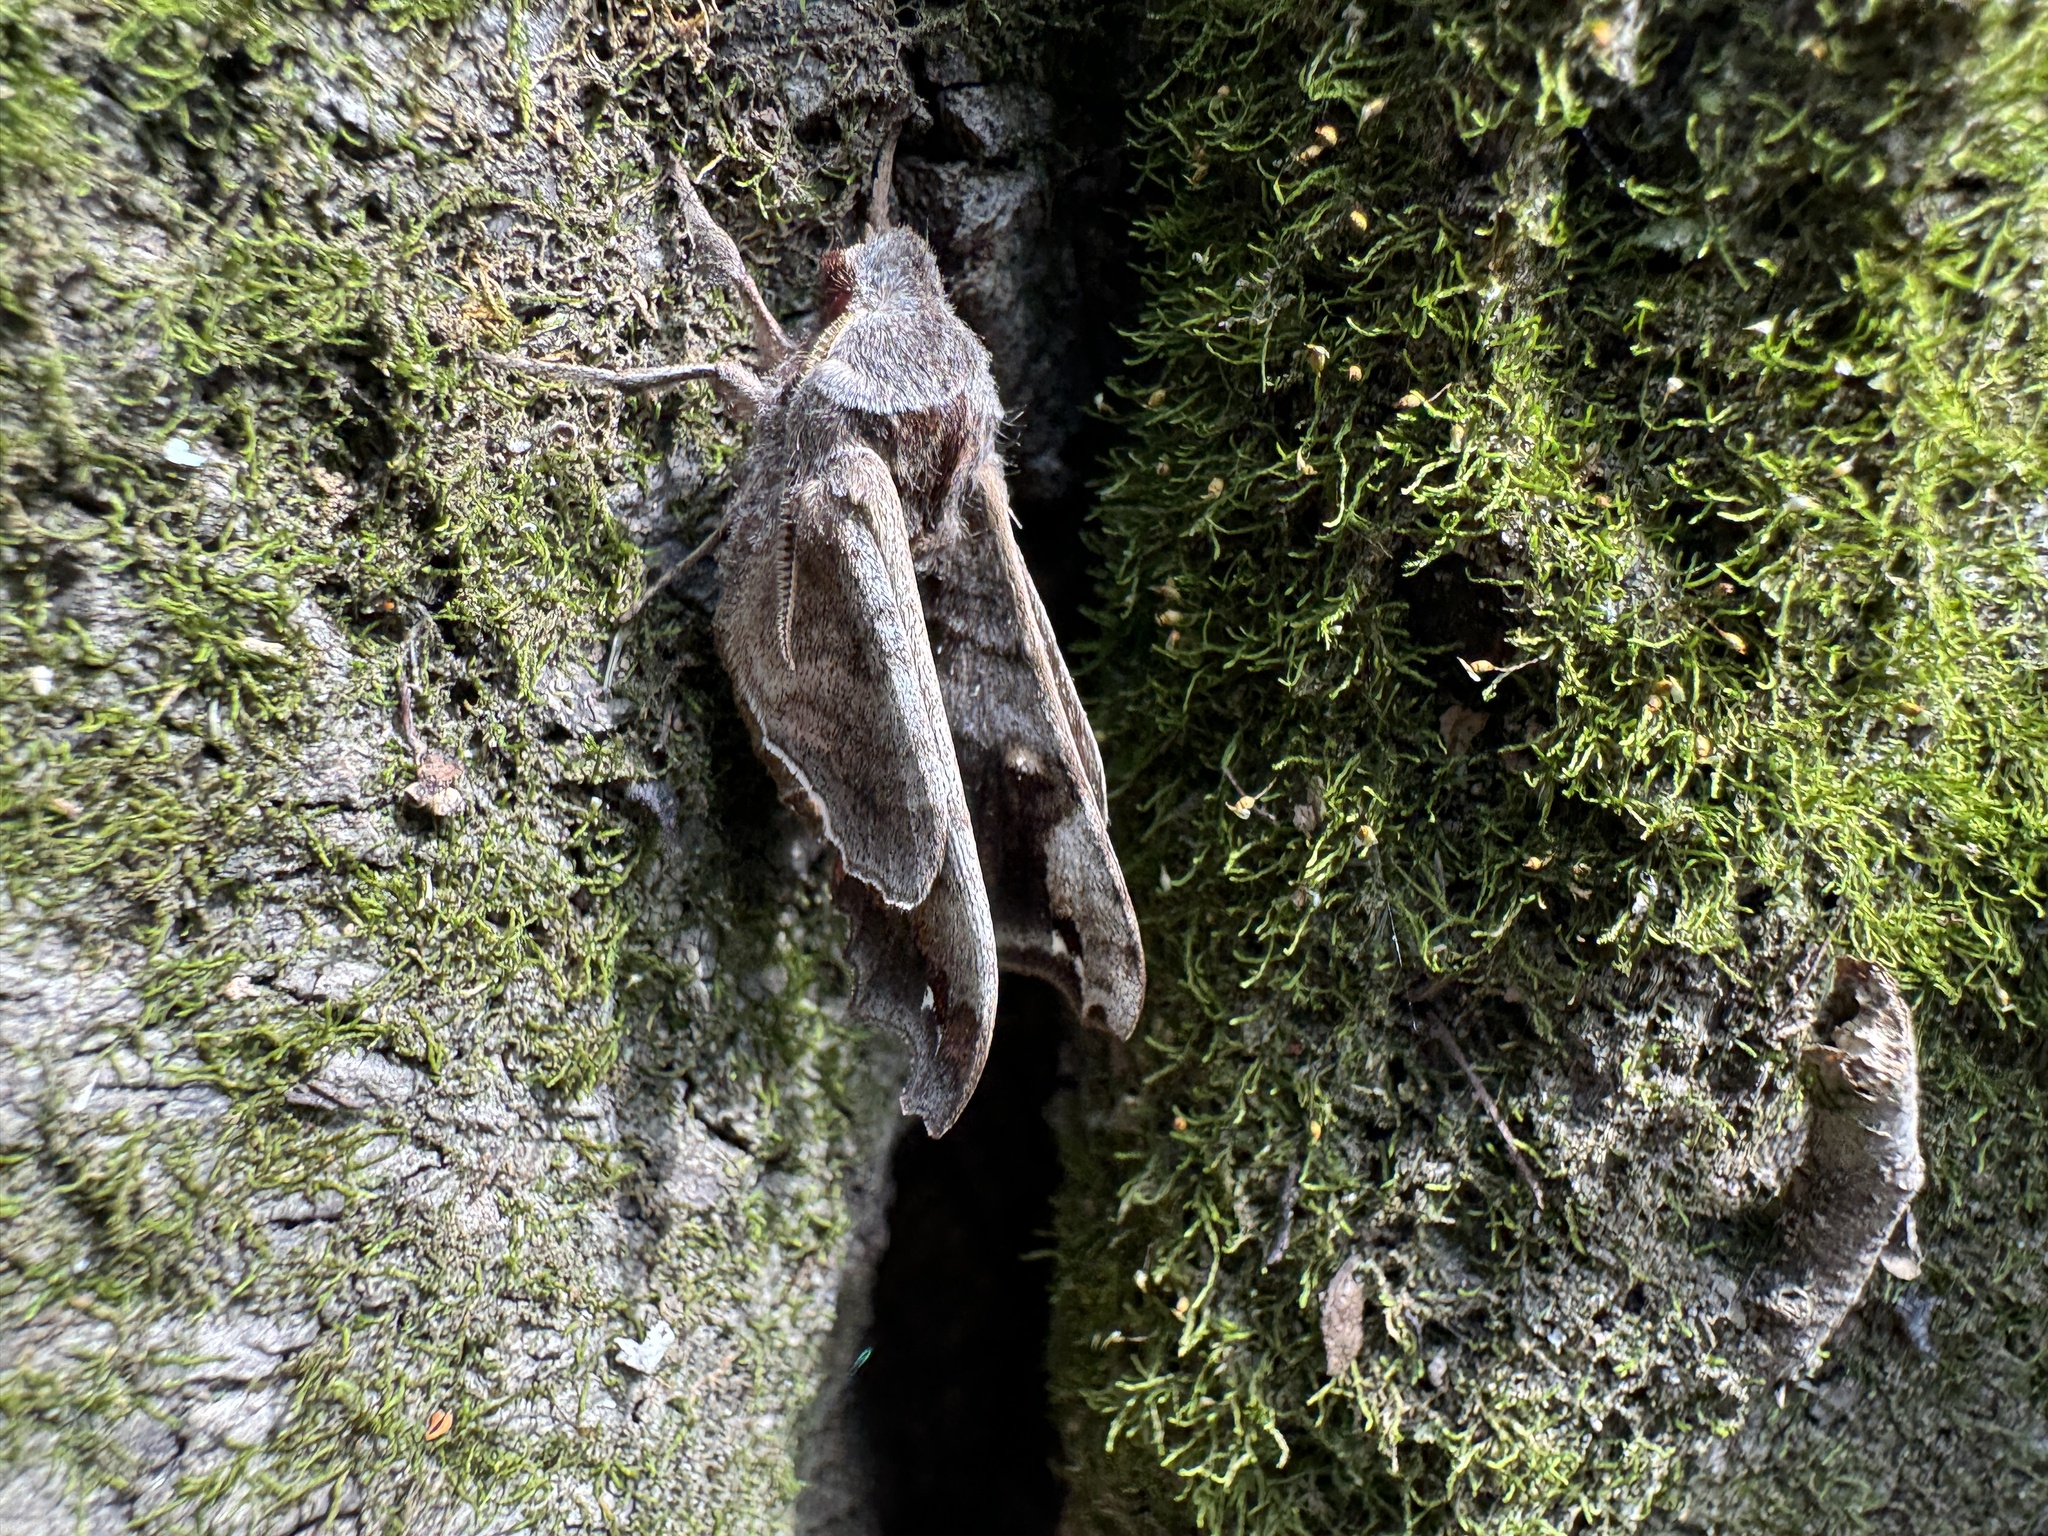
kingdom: Animalia
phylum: Arthropoda
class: Insecta
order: Lepidoptera
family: Sphingidae
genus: Deidamia
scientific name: Deidamia inscriptum
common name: Lettered sphinx
